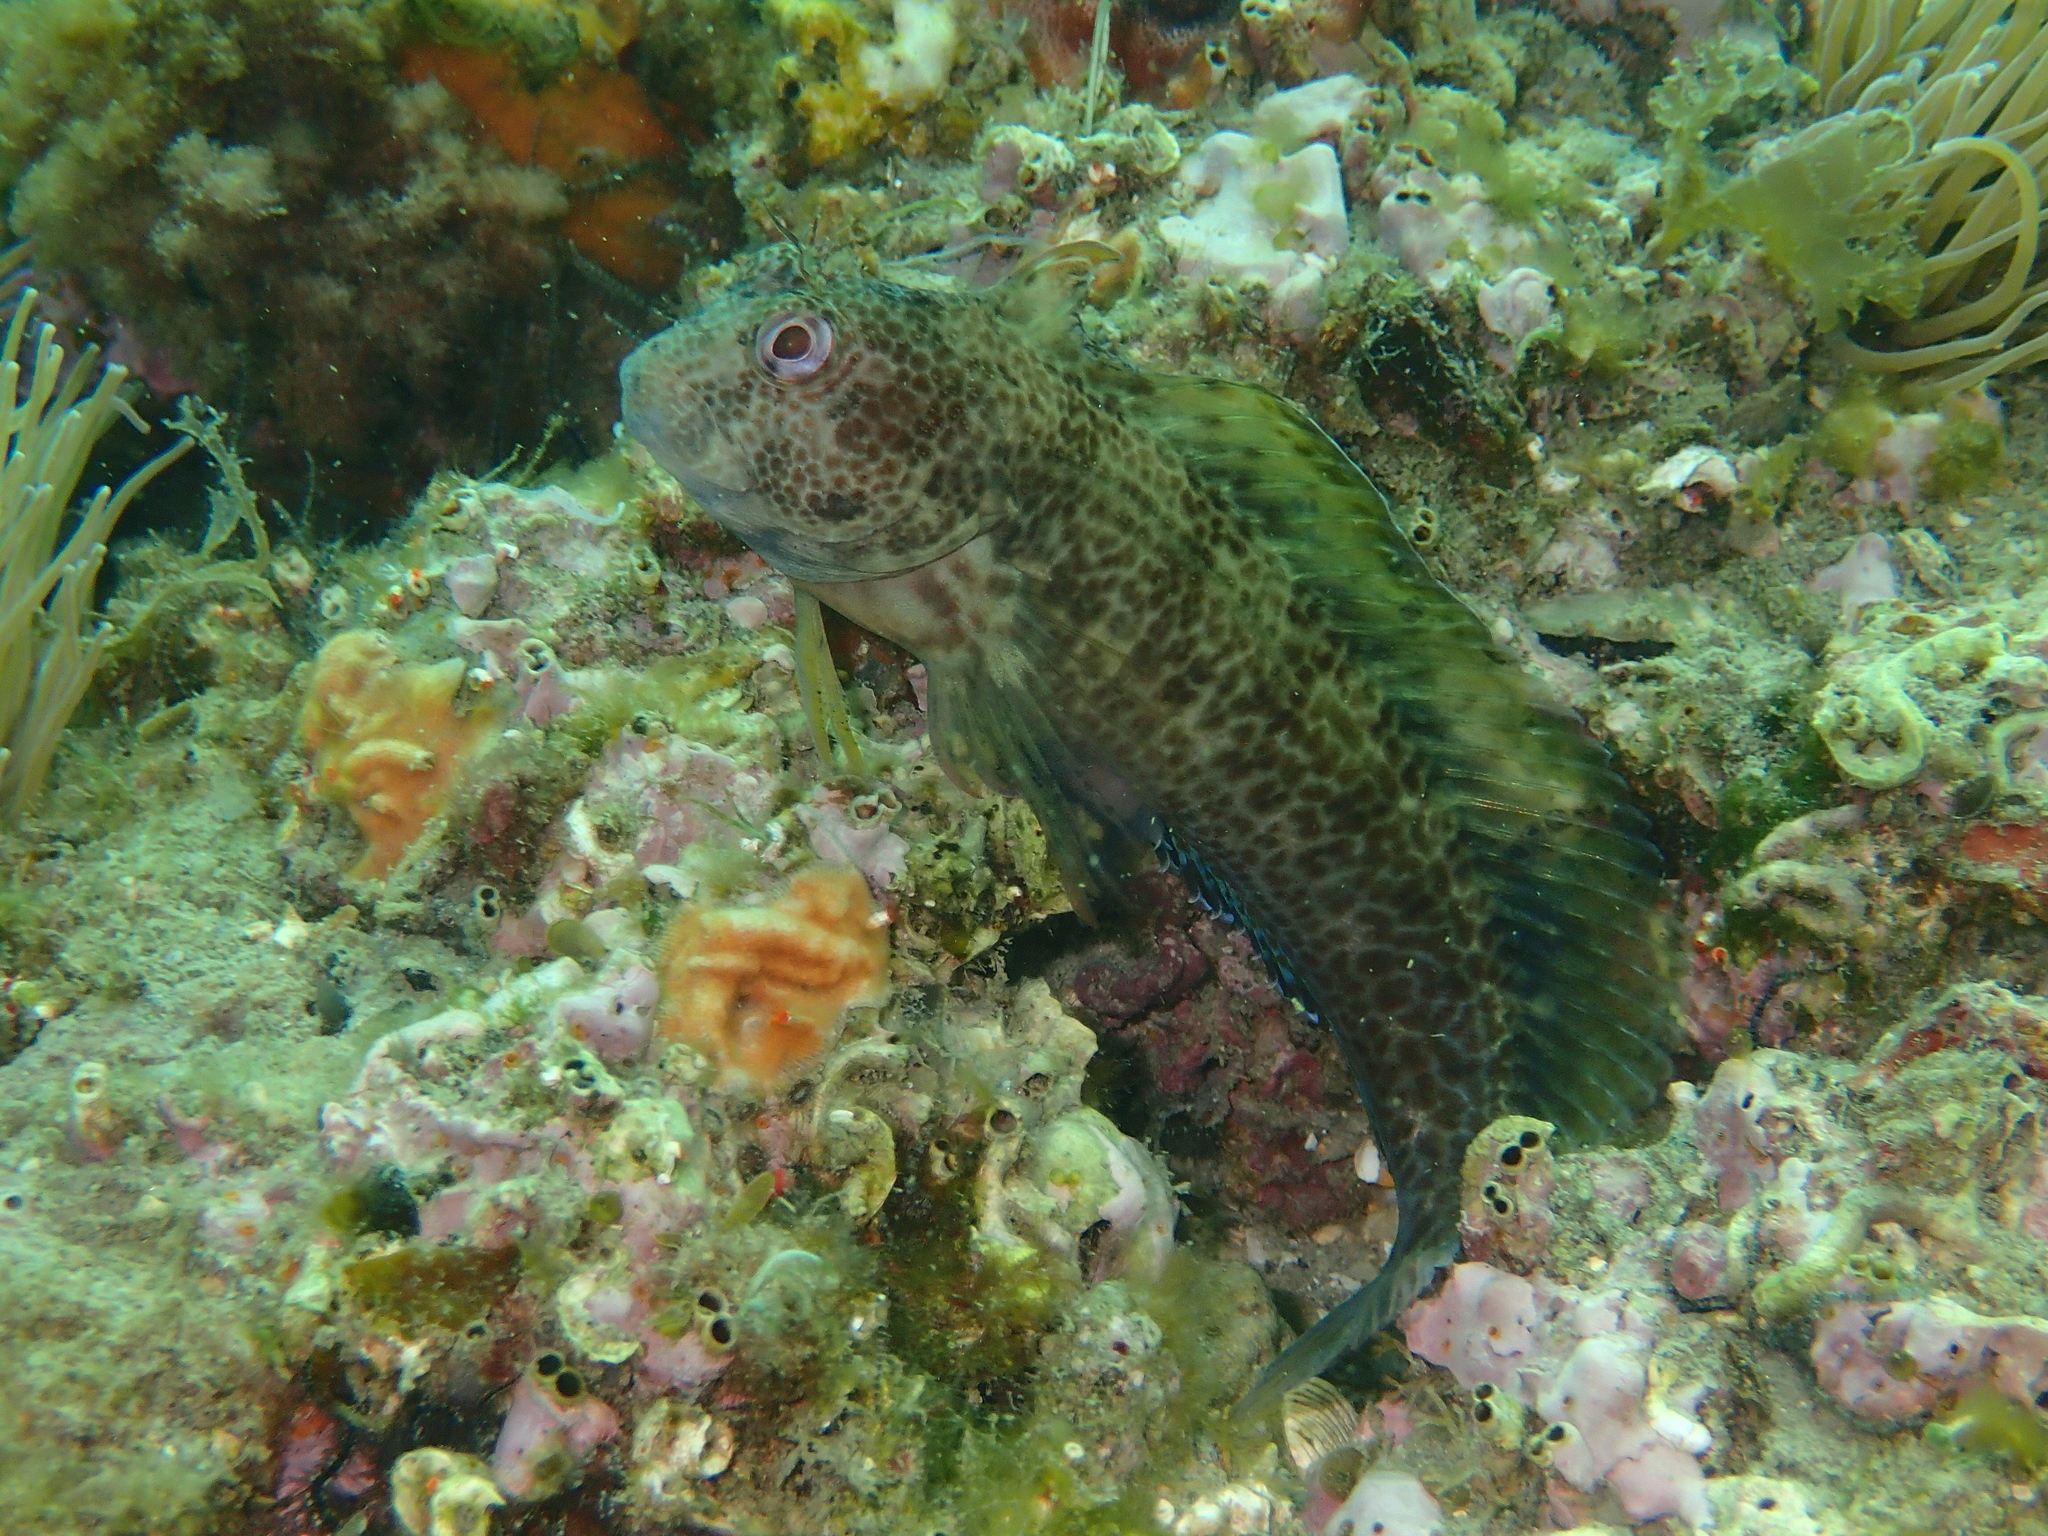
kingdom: Animalia
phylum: Chordata
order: Perciformes
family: Blenniidae
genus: Parablennius
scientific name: Parablennius pilicornis
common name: Ringneck blenny
